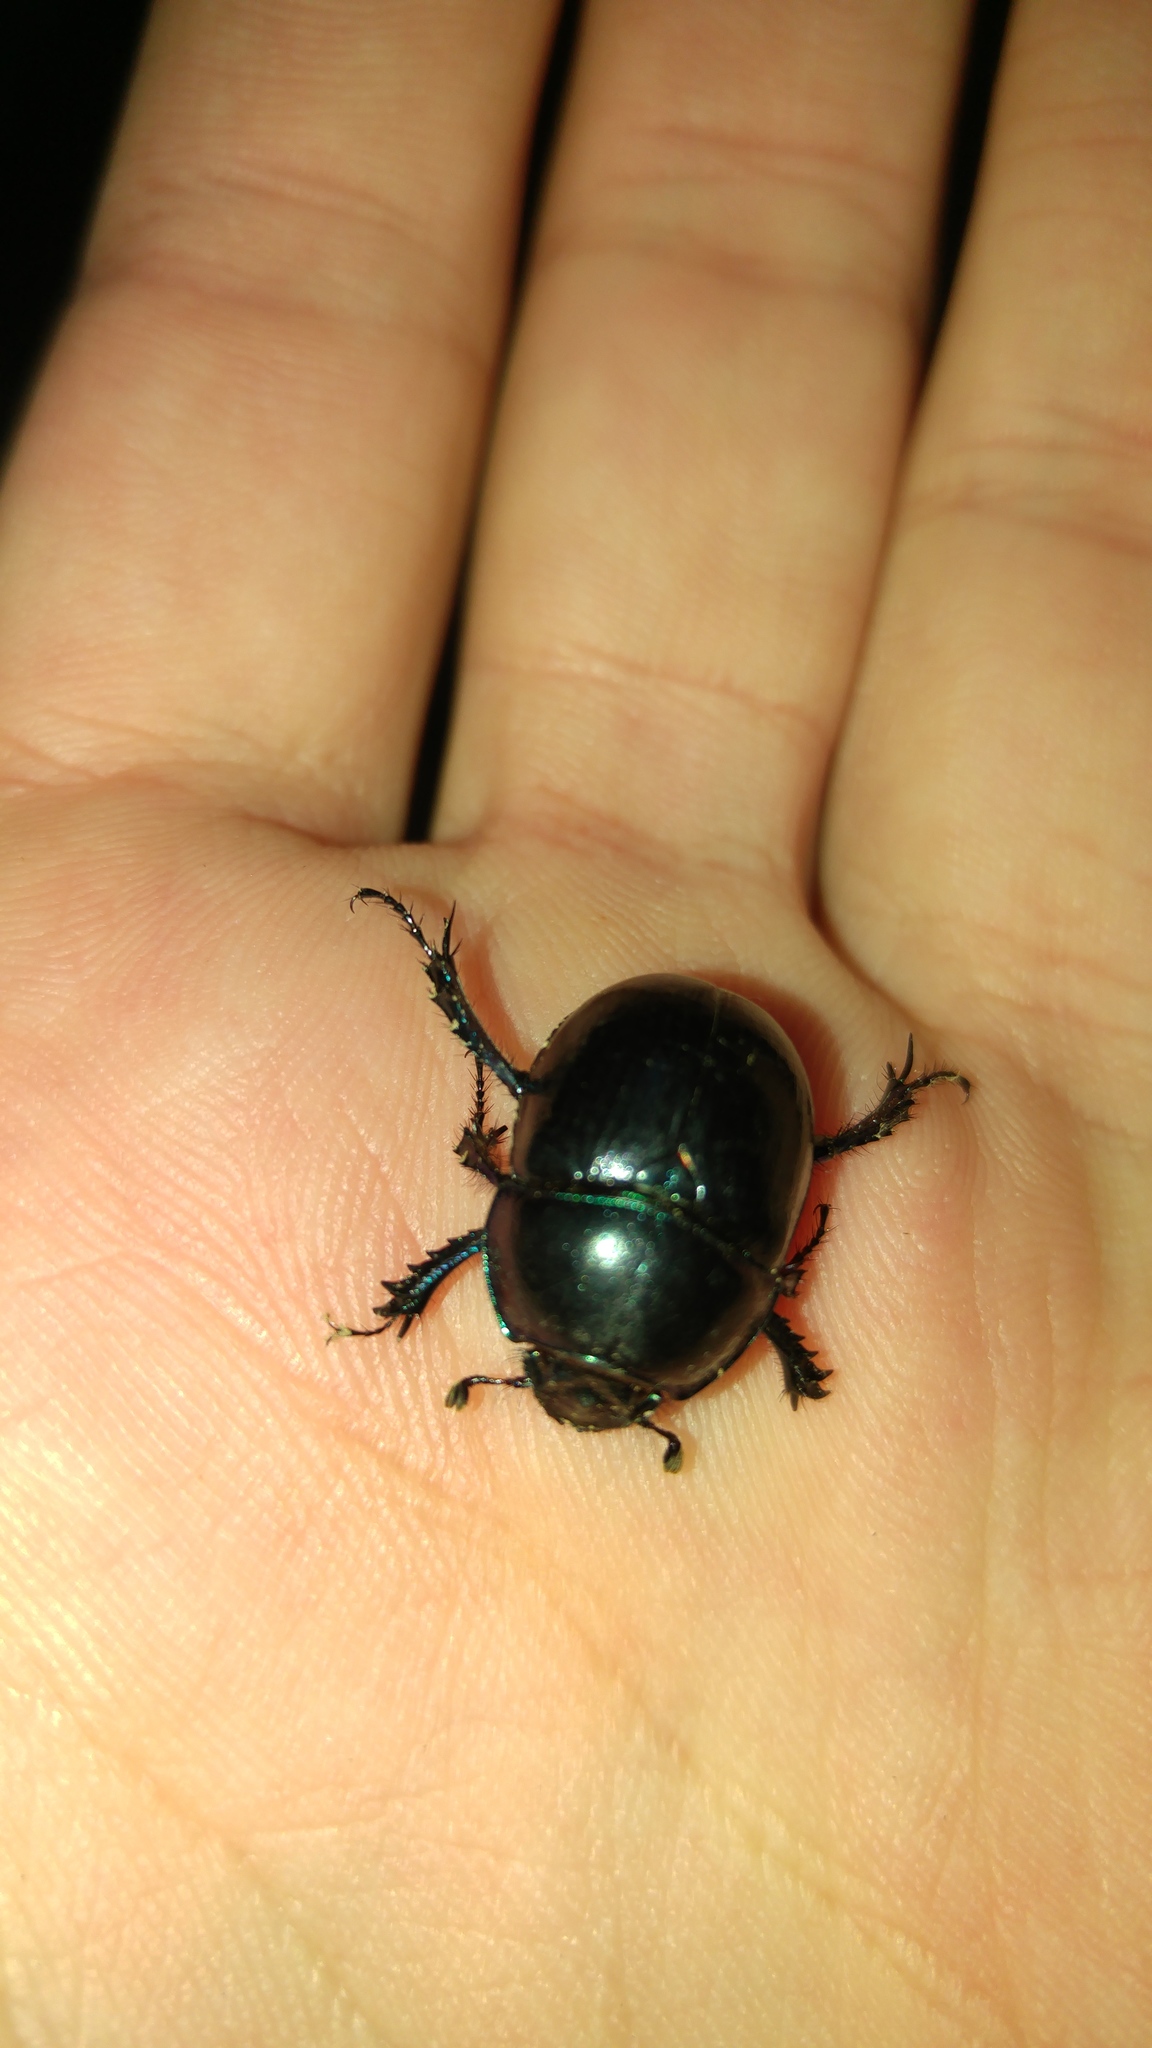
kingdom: Animalia
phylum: Arthropoda
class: Insecta
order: Coleoptera
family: Geotrupidae
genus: Anoplotrupes
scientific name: Anoplotrupes stercorosus
